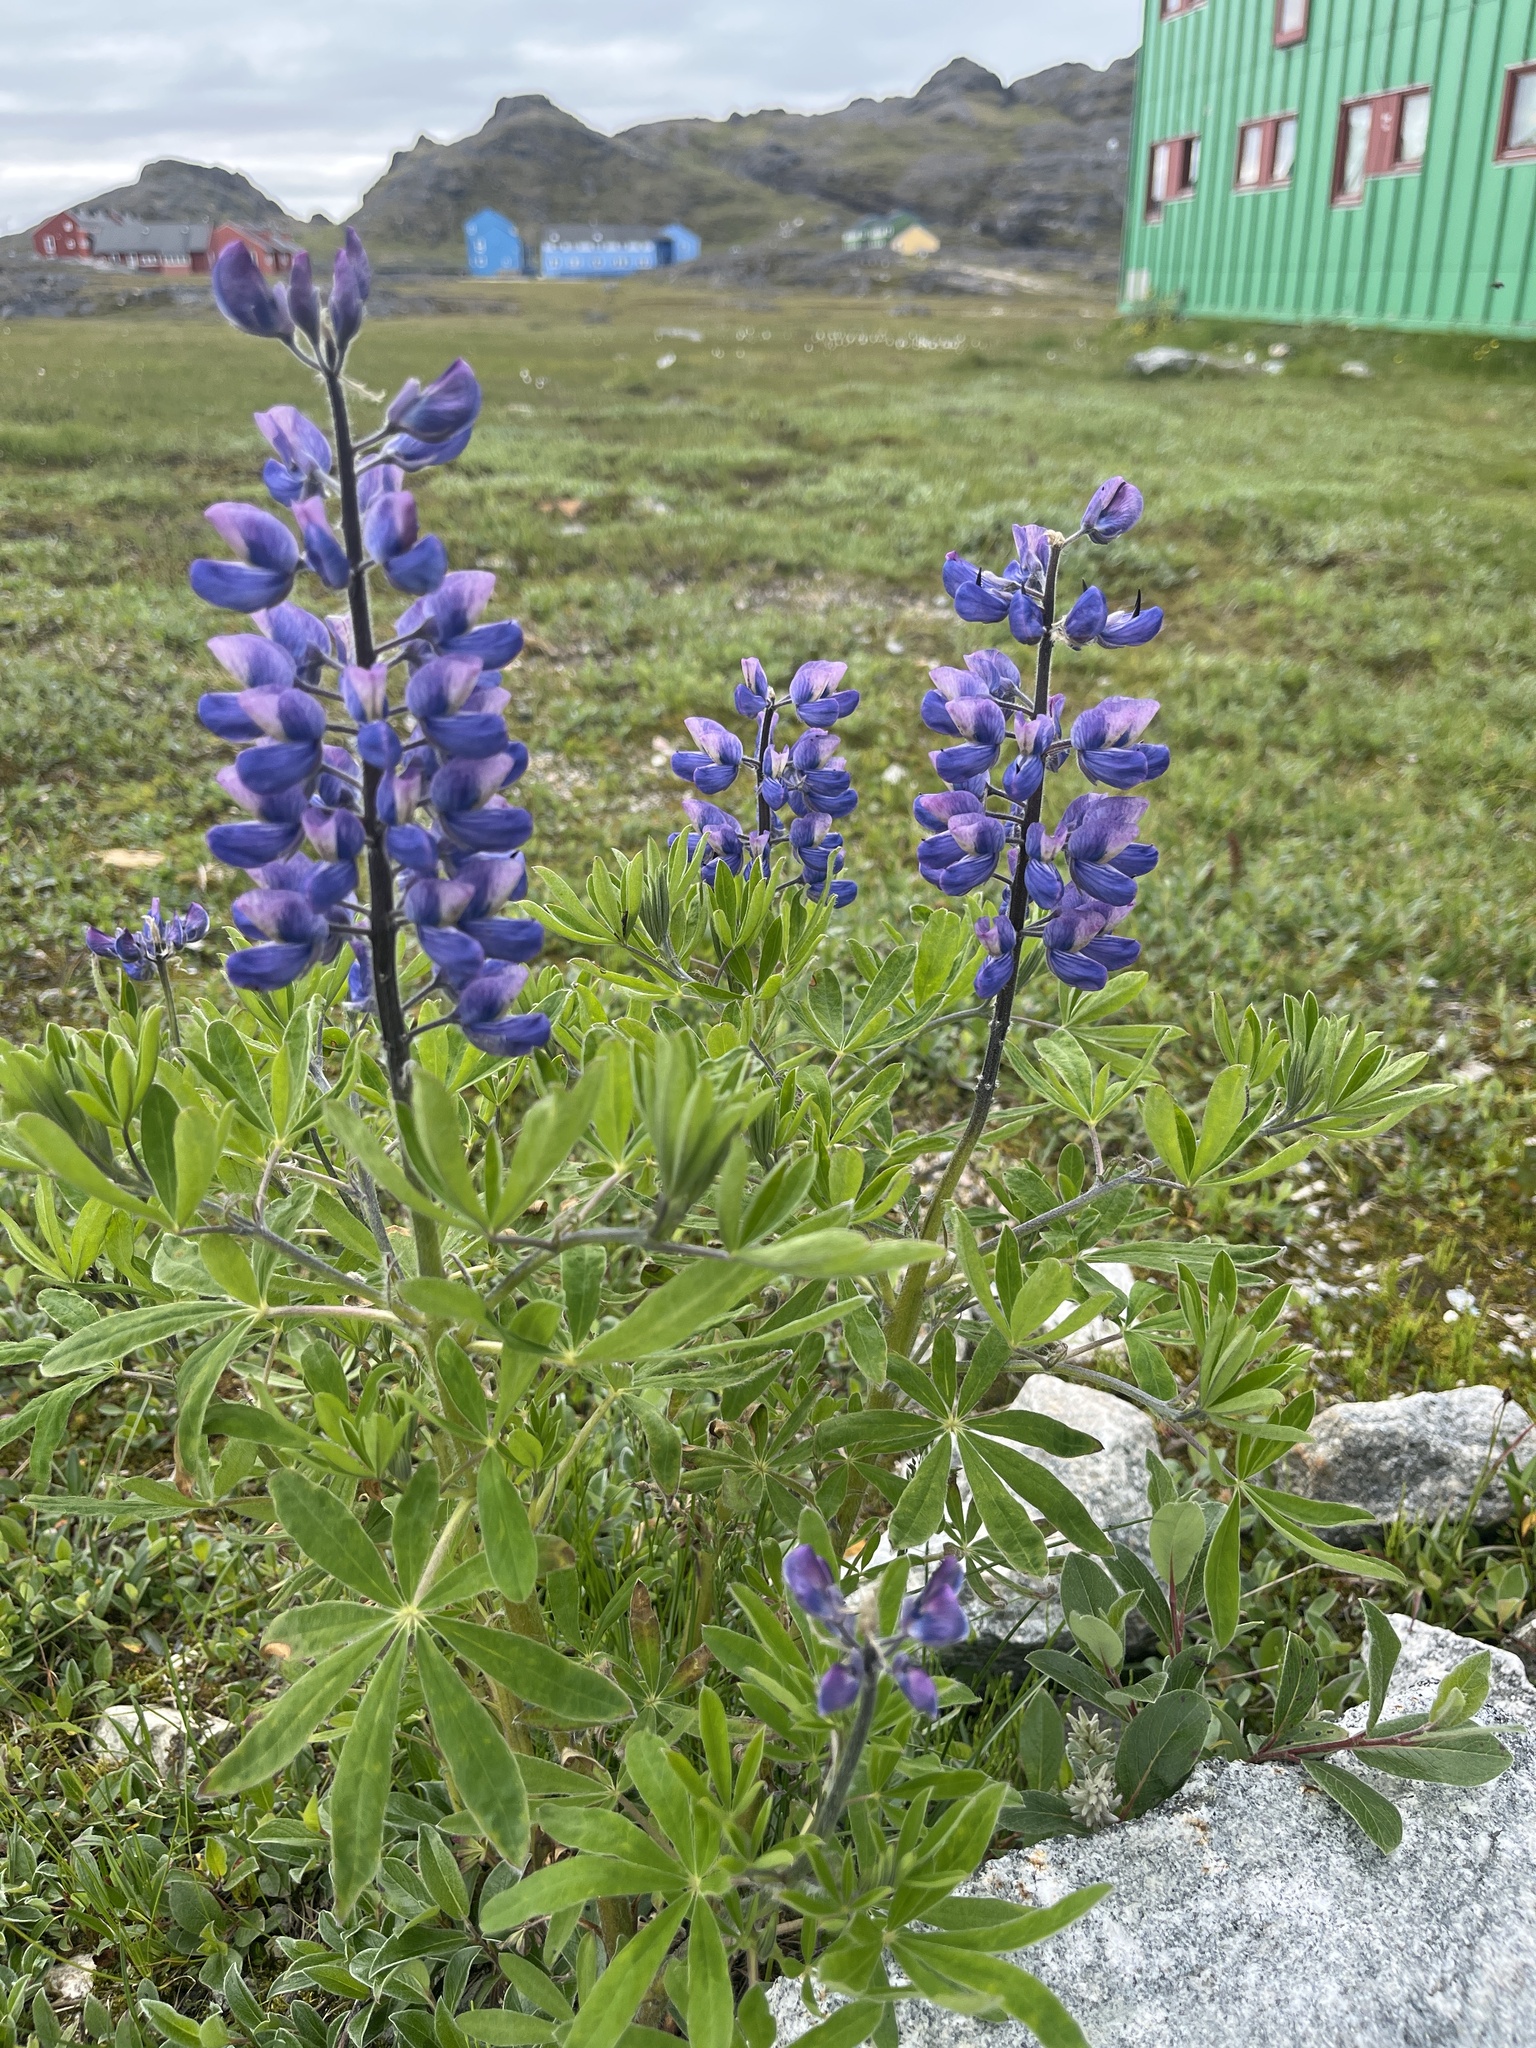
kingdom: Plantae
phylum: Tracheophyta
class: Magnoliopsida
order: Fabales
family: Fabaceae
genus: Lupinus
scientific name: Lupinus nootkatensis
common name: Nootka lupine
